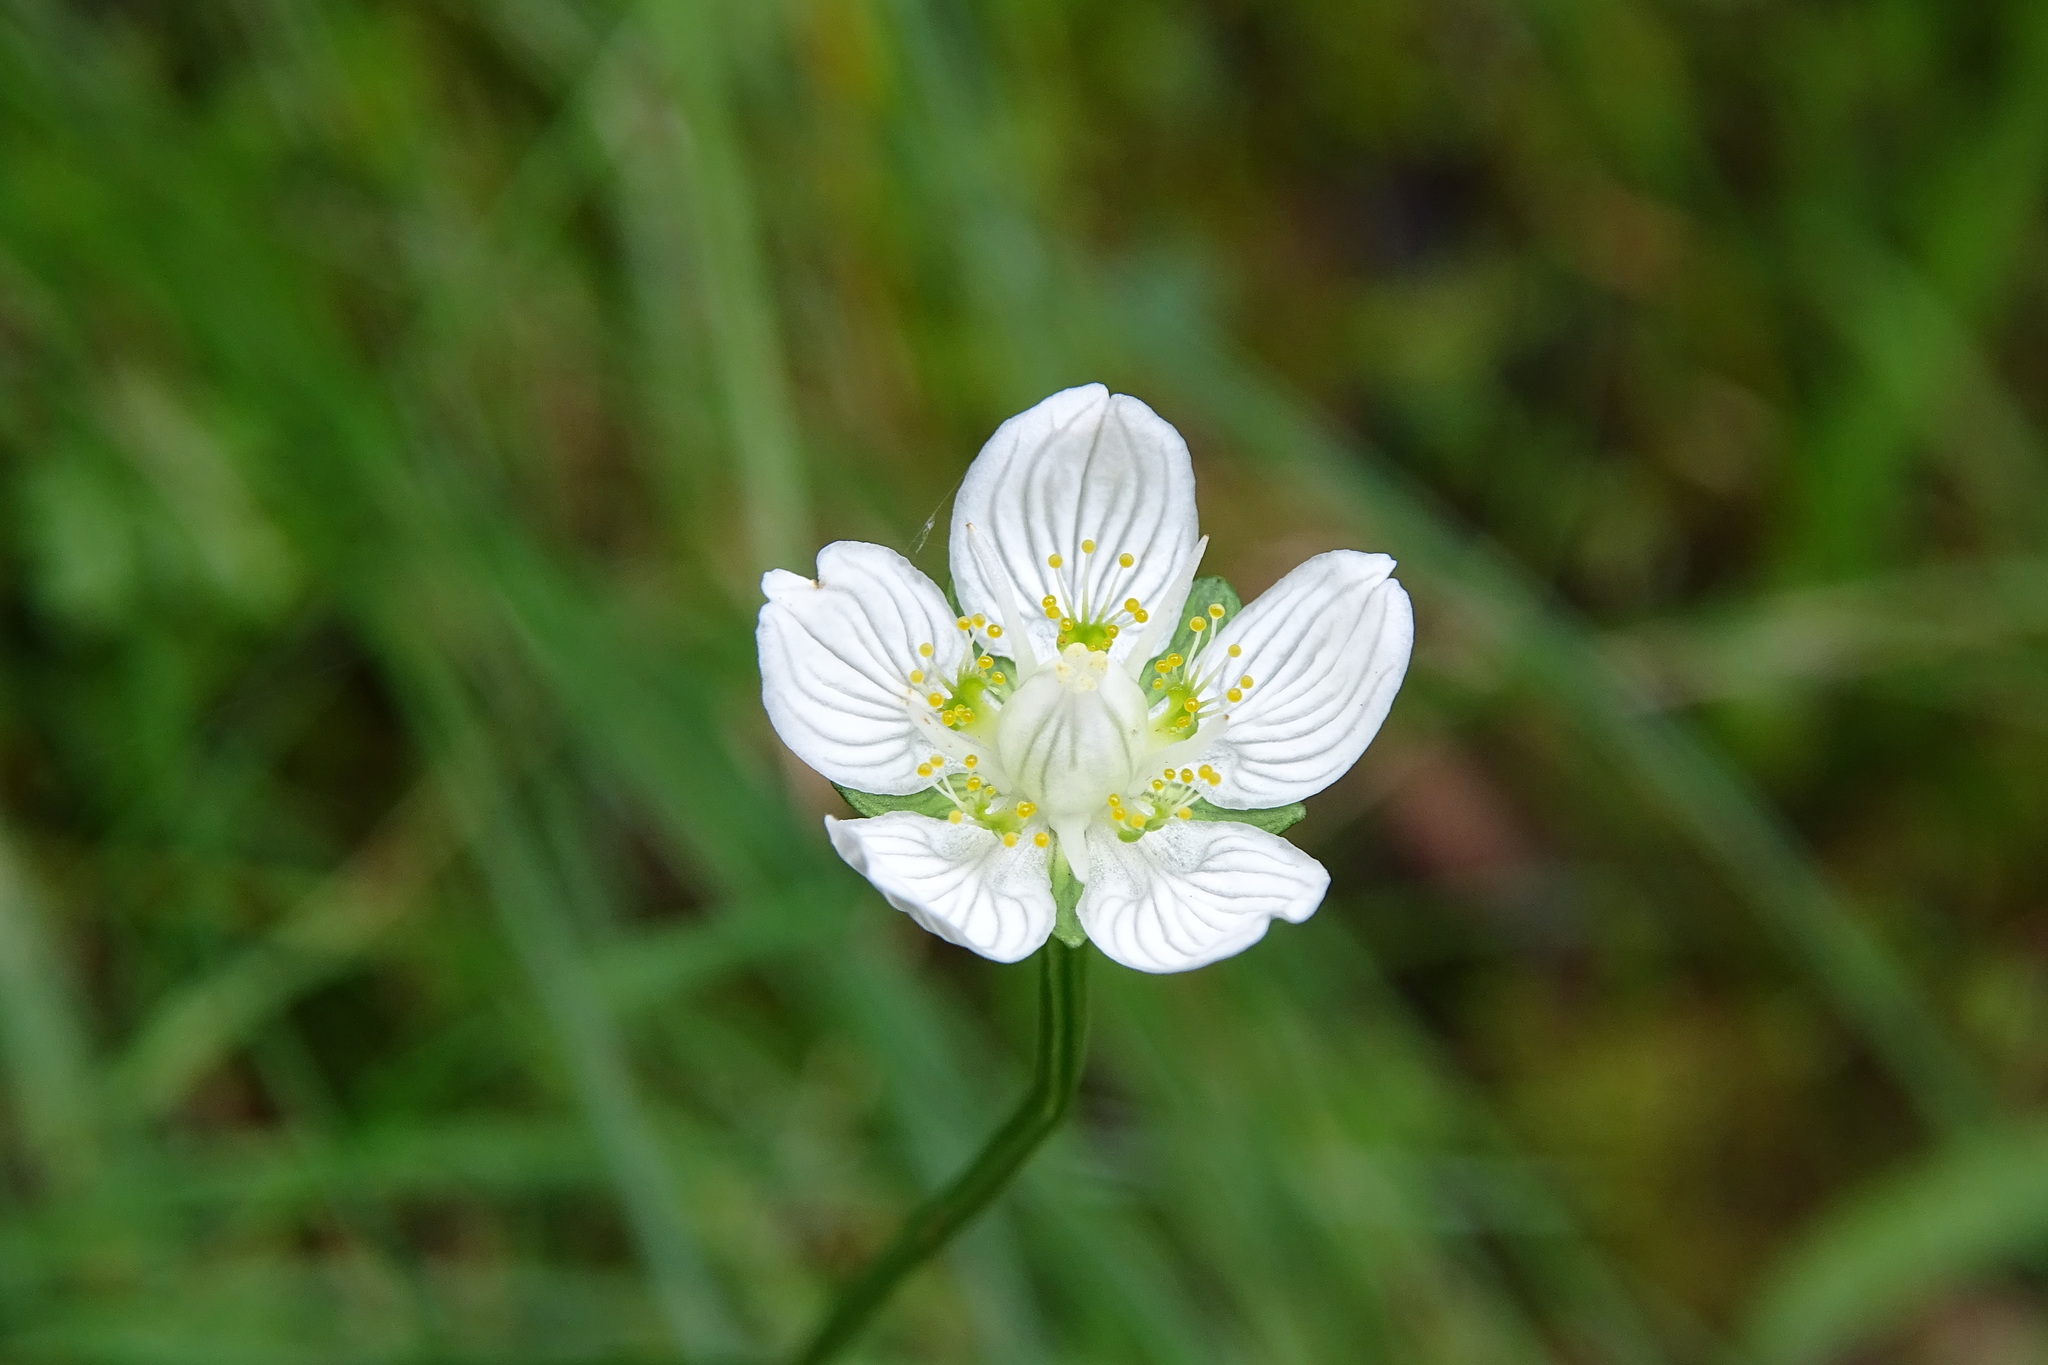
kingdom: Plantae
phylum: Tracheophyta
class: Magnoliopsida
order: Celastrales
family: Parnassiaceae
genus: Parnassia
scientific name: Parnassia palustris
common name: Grass-of-parnassus
